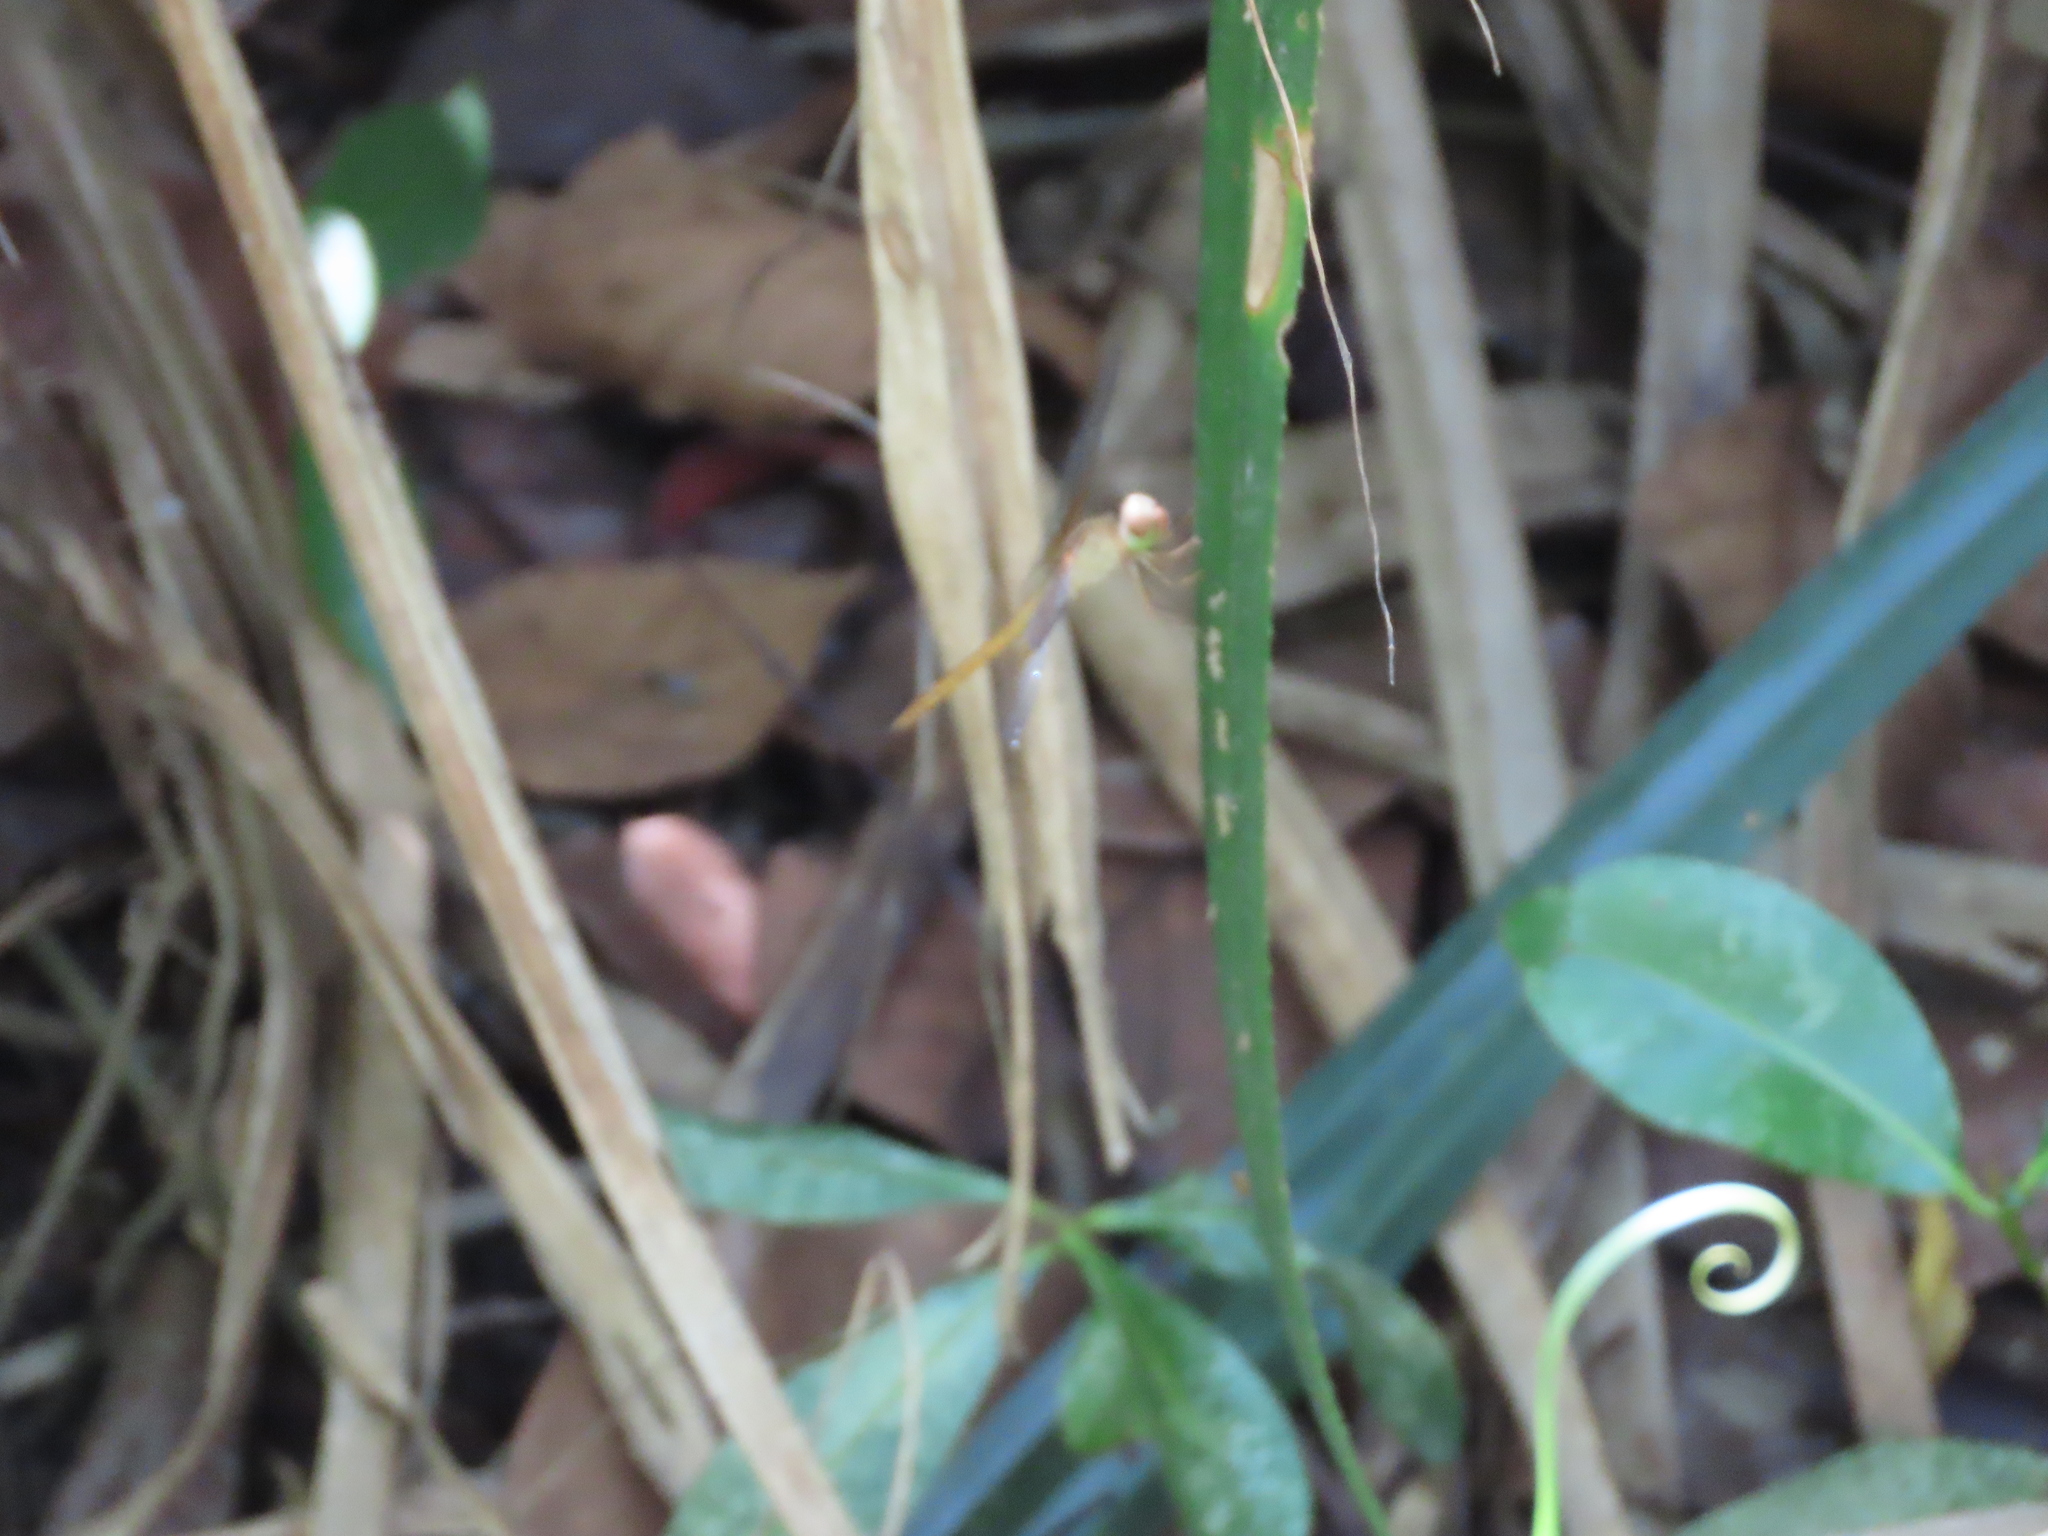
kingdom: Animalia
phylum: Arthropoda
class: Insecta
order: Odonata
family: Libellulidae
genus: Tholymis
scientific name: Tholymis tillarga
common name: Coral-tailed cloud wing
